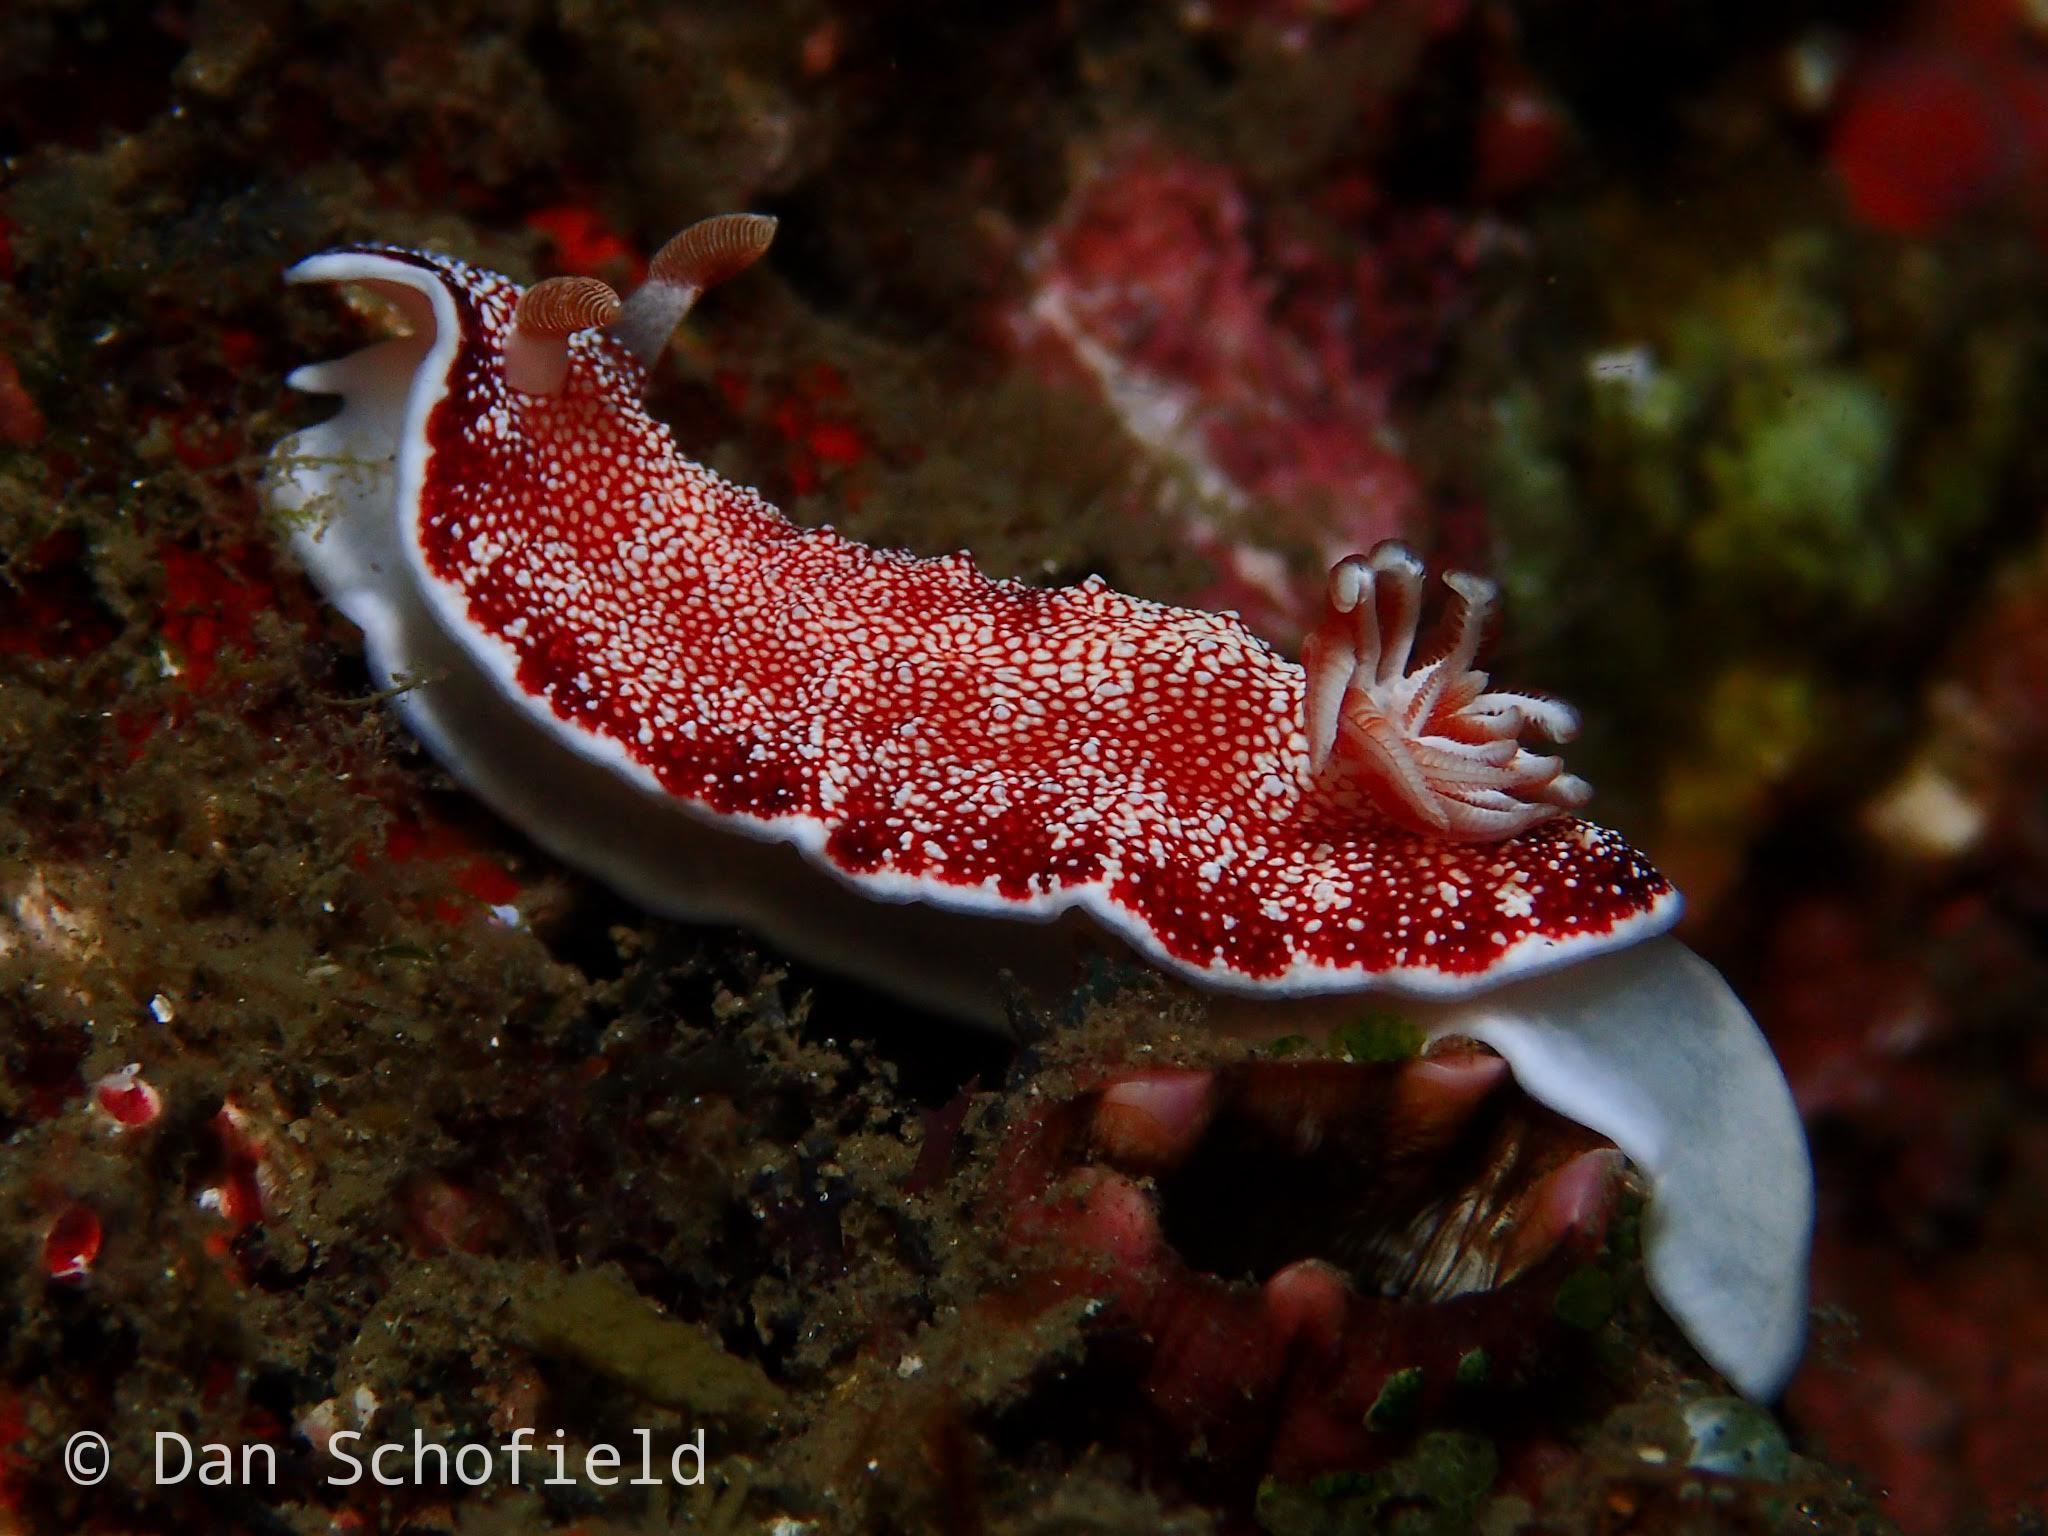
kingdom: Animalia
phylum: Mollusca
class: Gastropoda
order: Nudibranchia
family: Chromodorididae
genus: Goniobranchus
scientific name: Goniobranchus reticulatus
